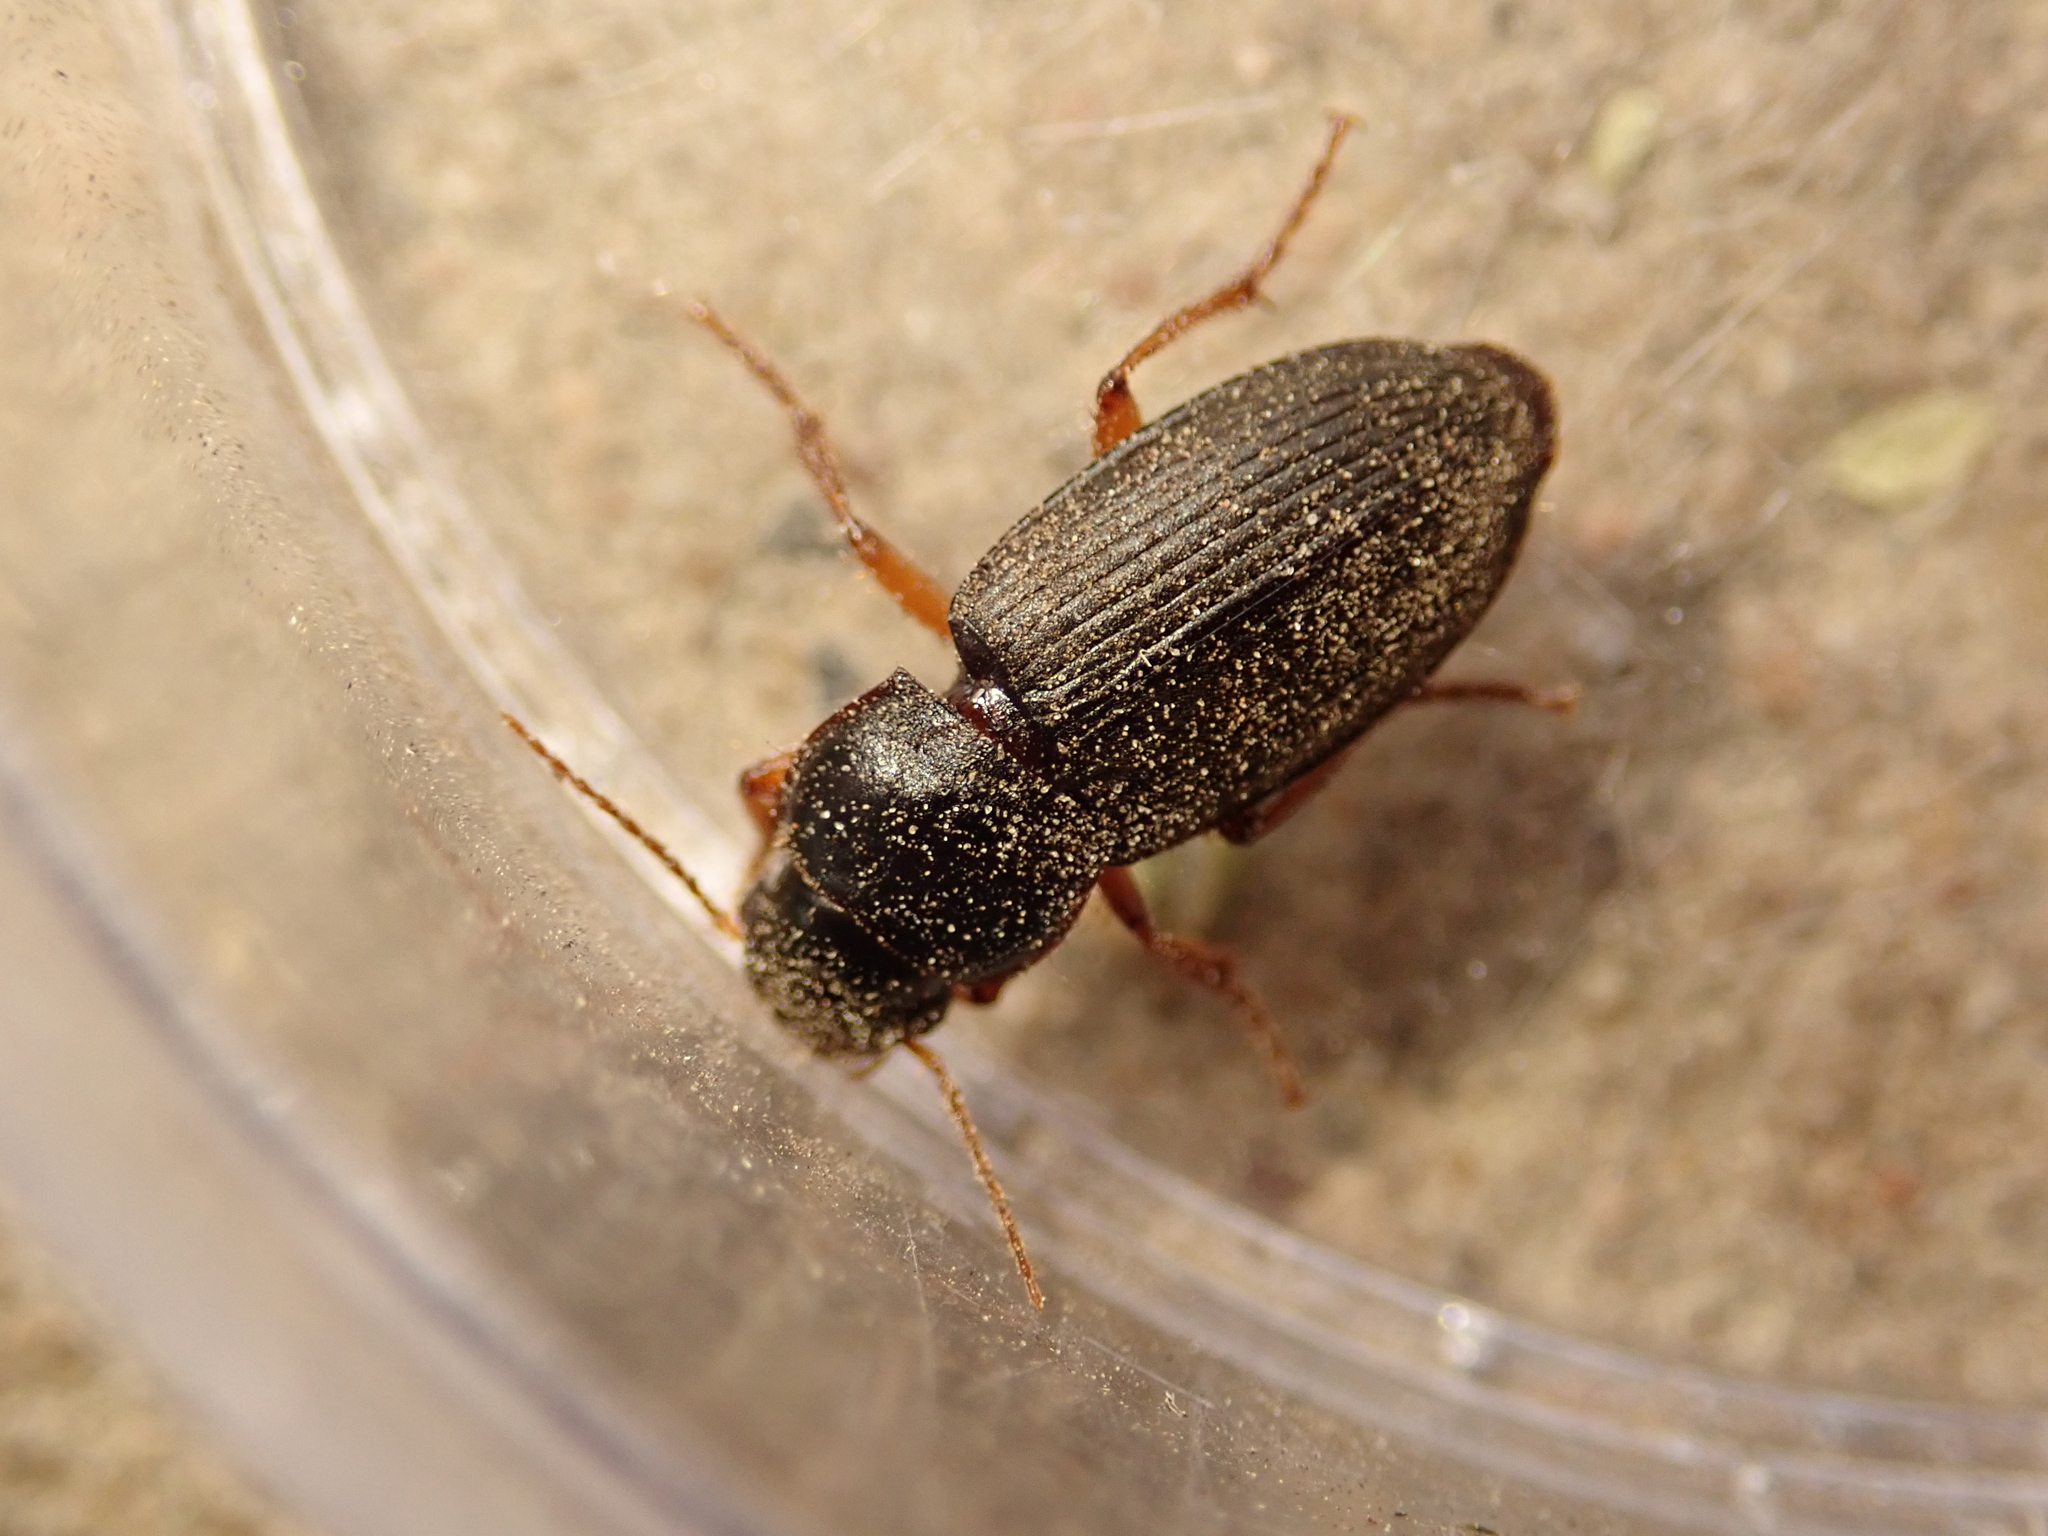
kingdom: Animalia
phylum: Arthropoda
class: Insecta
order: Coleoptera
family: Carabidae
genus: Harpalus
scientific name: Harpalus rufipes
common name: Strawberry harp ground beetle
